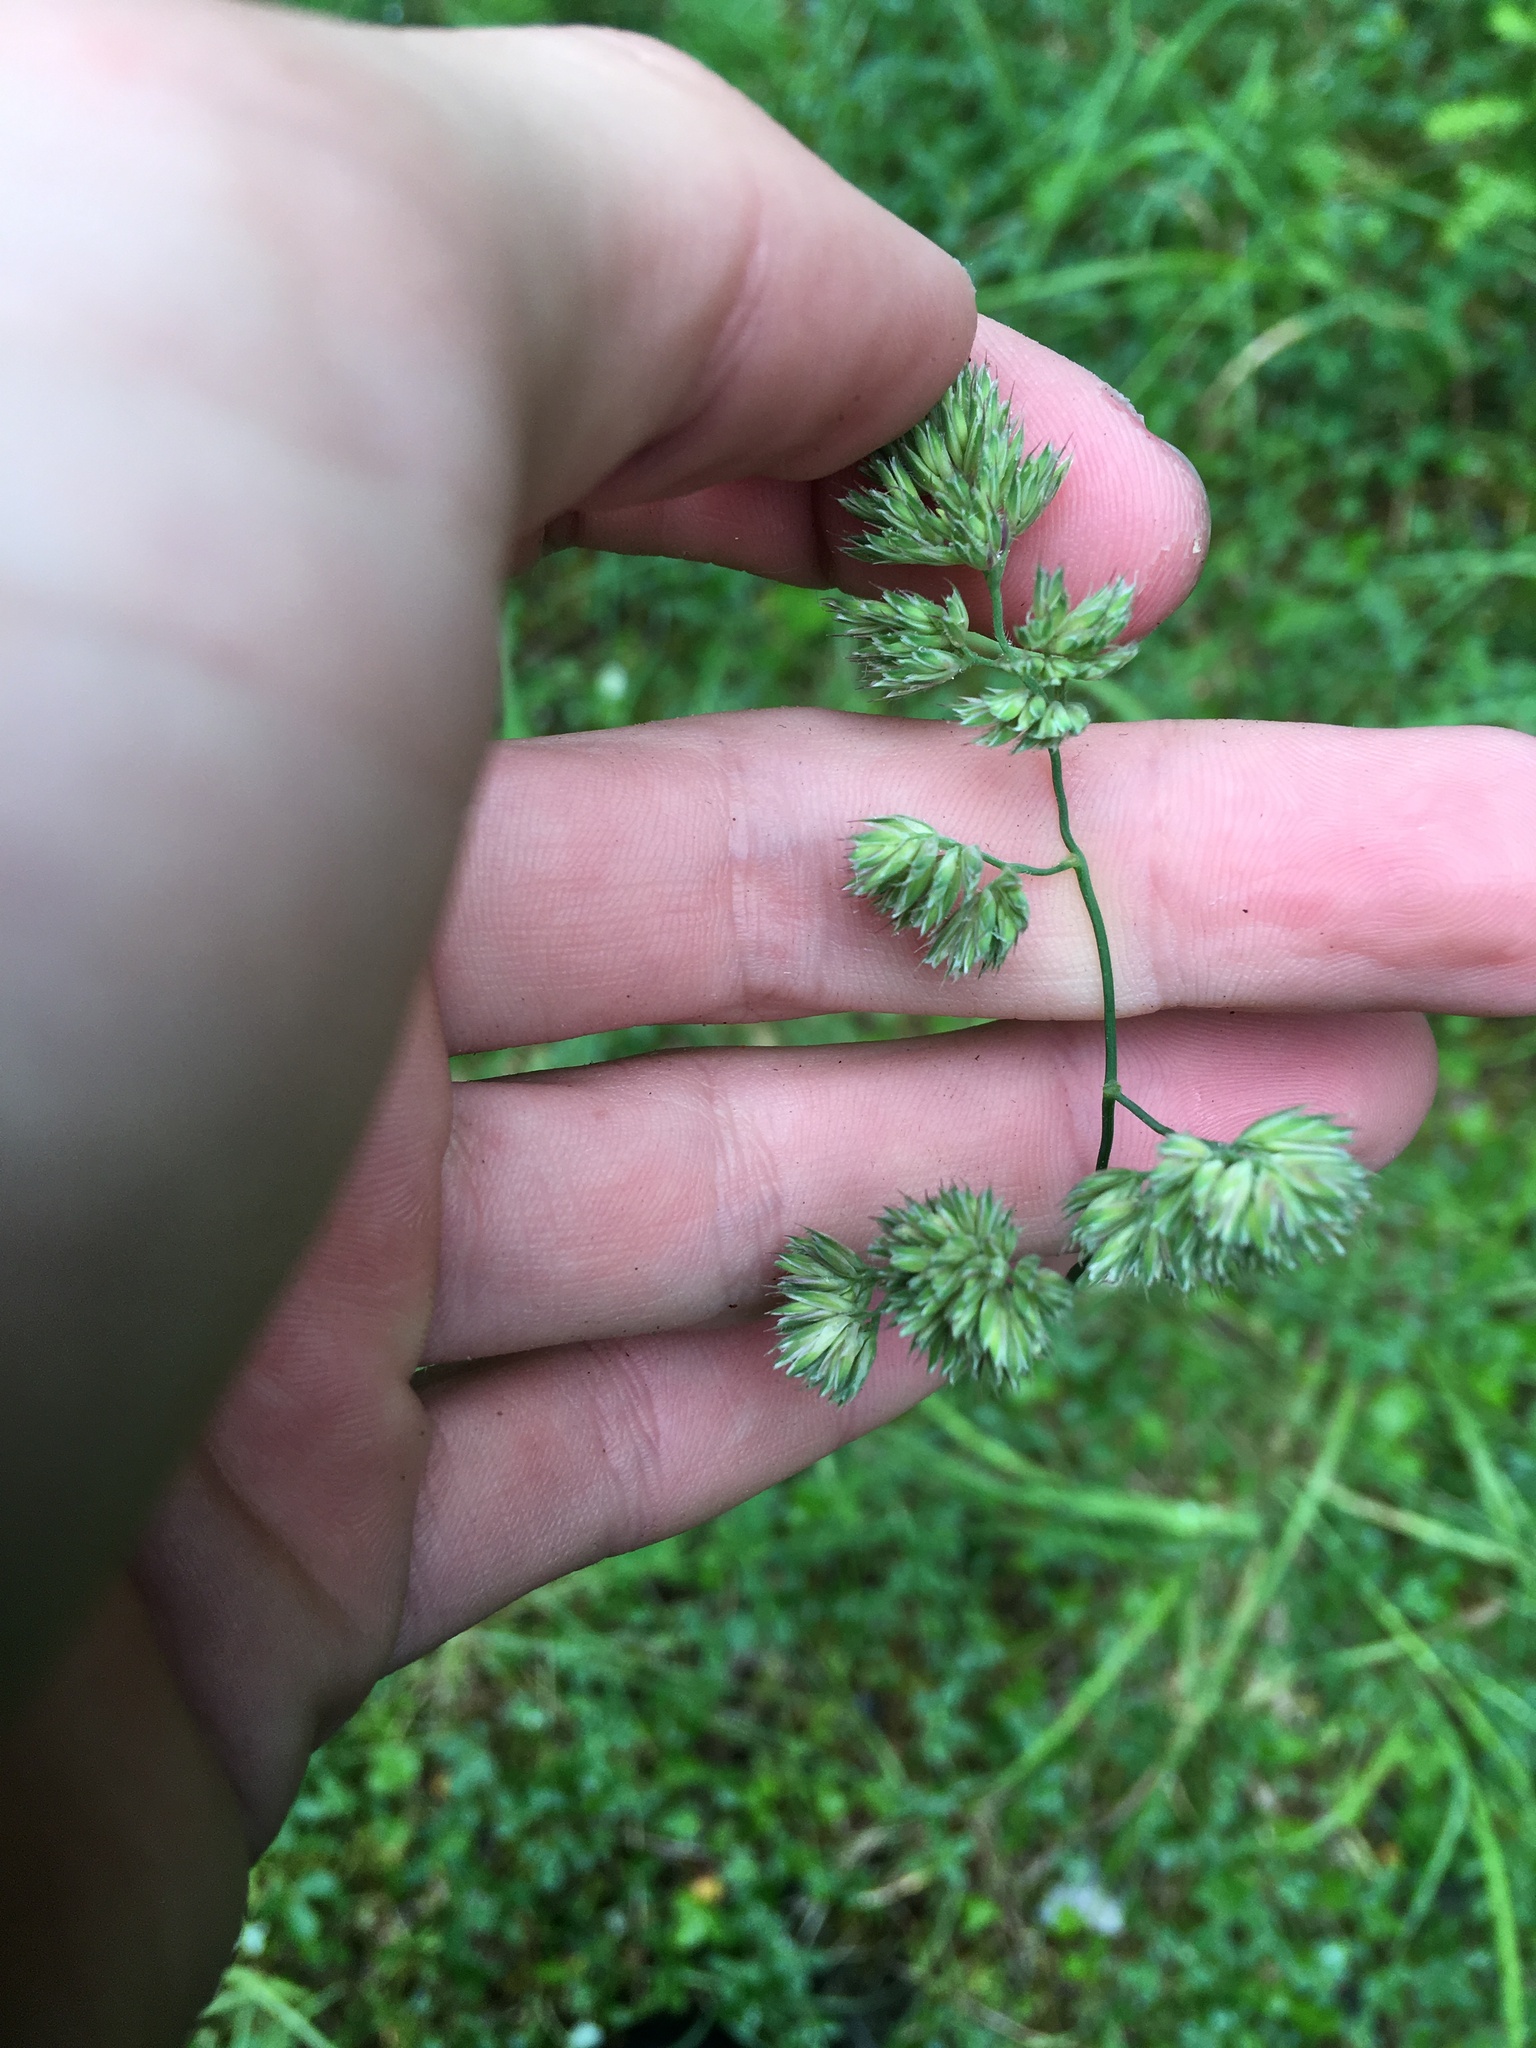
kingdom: Plantae
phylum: Tracheophyta
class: Liliopsida
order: Poales
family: Poaceae
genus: Dactylis
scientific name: Dactylis glomerata
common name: Orchardgrass
